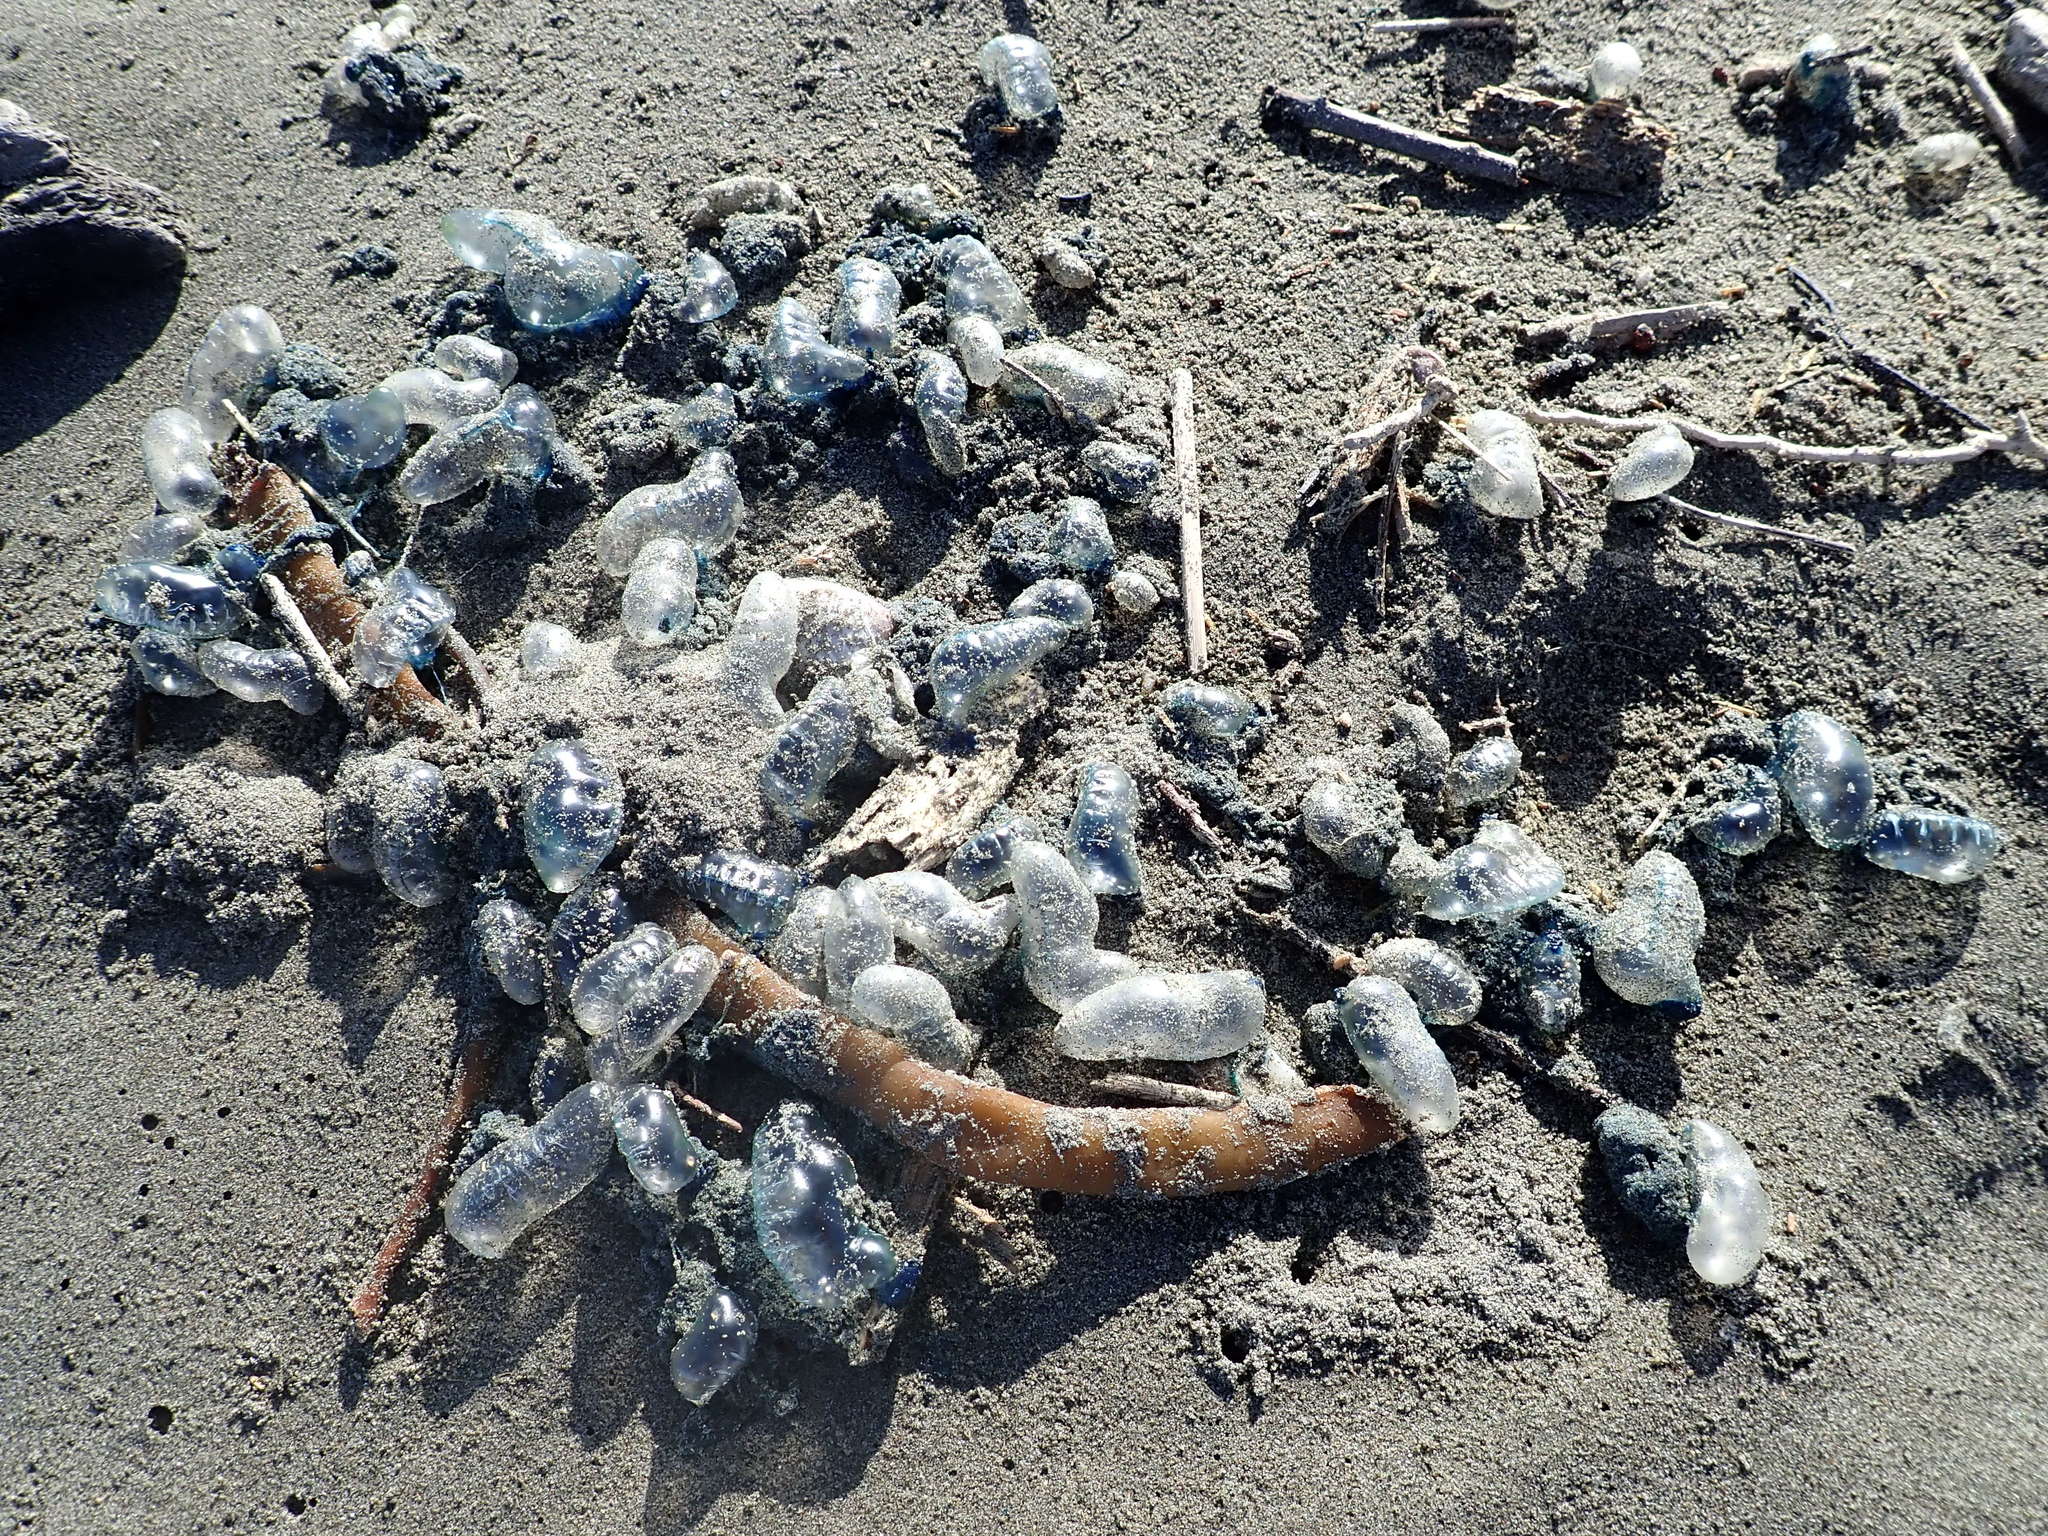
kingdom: Animalia
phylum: Cnidaria
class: Hydrozoa
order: Siphonophorae
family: Physaliidae
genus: Physalia
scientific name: Physalia physalis
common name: Portuguese man-of-war
